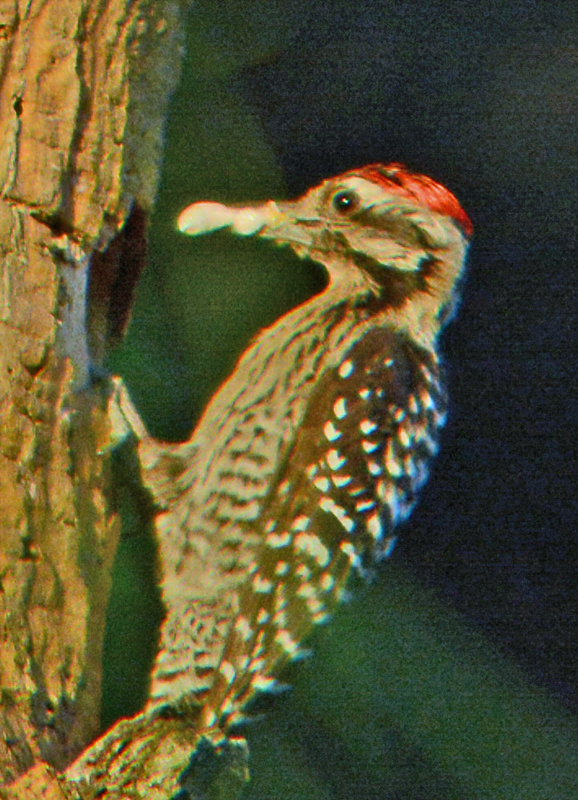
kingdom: Animalia
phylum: Chordata
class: Aves
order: Piciformes
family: Picidae
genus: Dryobates
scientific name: Dryobates scalaris
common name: Ladder-backed woodpecker
